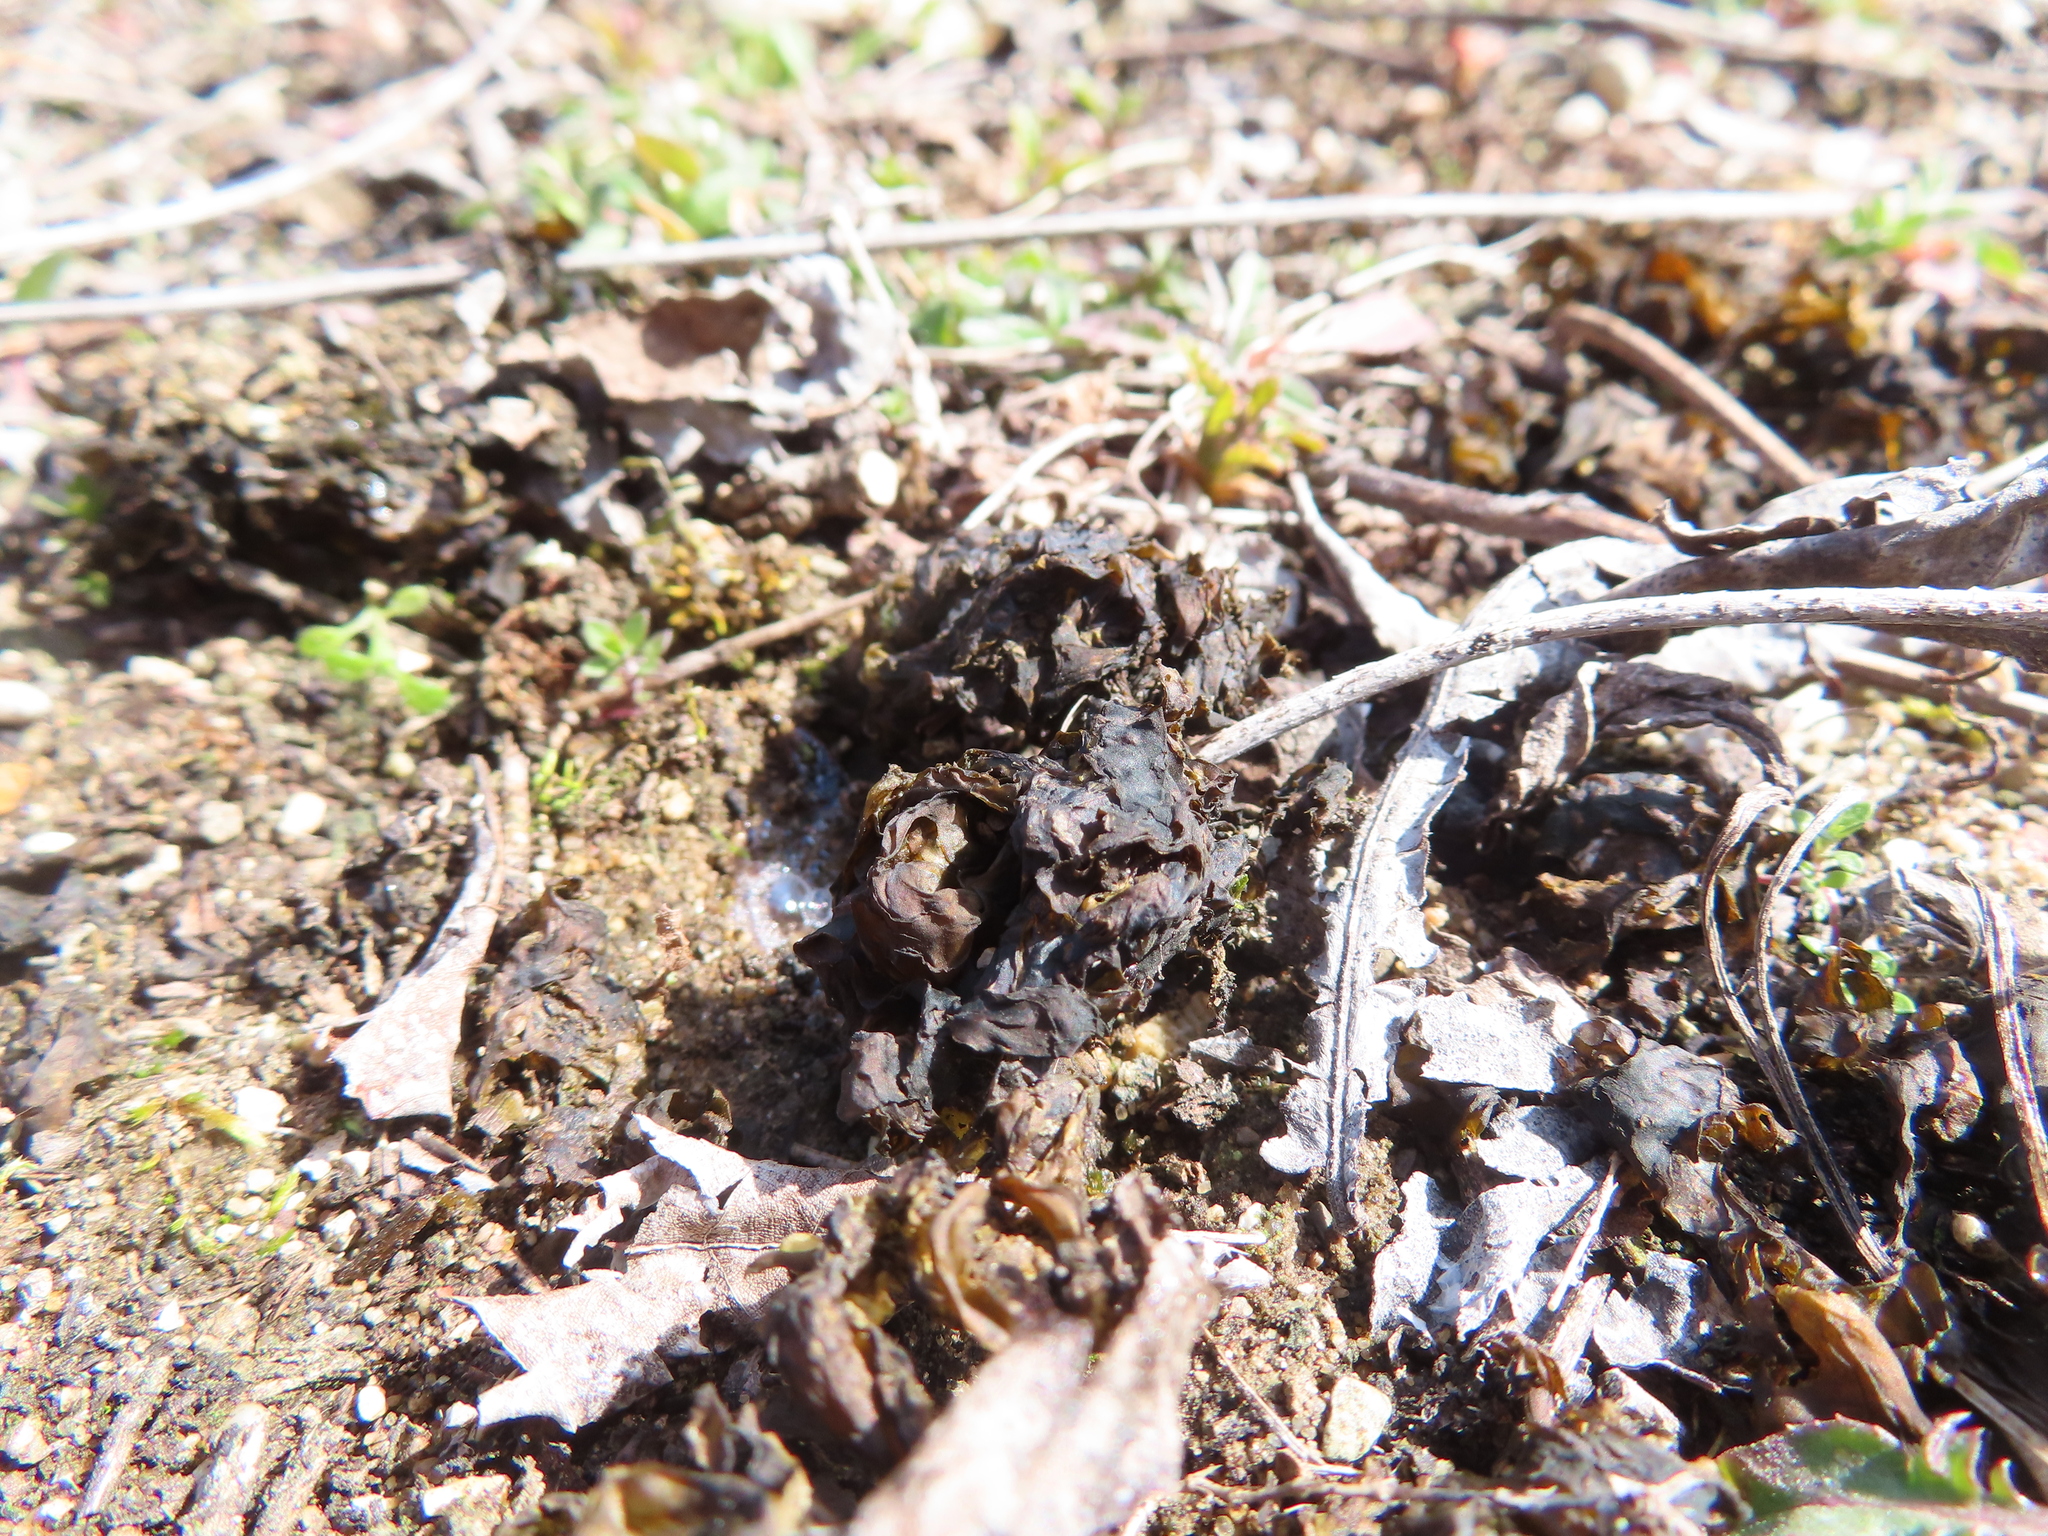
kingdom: Bacteria
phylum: Cyanobacteria
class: Cyanobacteriia
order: Cyanobacteriales
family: Nostocaceae
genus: Nostoc
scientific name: Nostoc commune
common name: Star jelly
